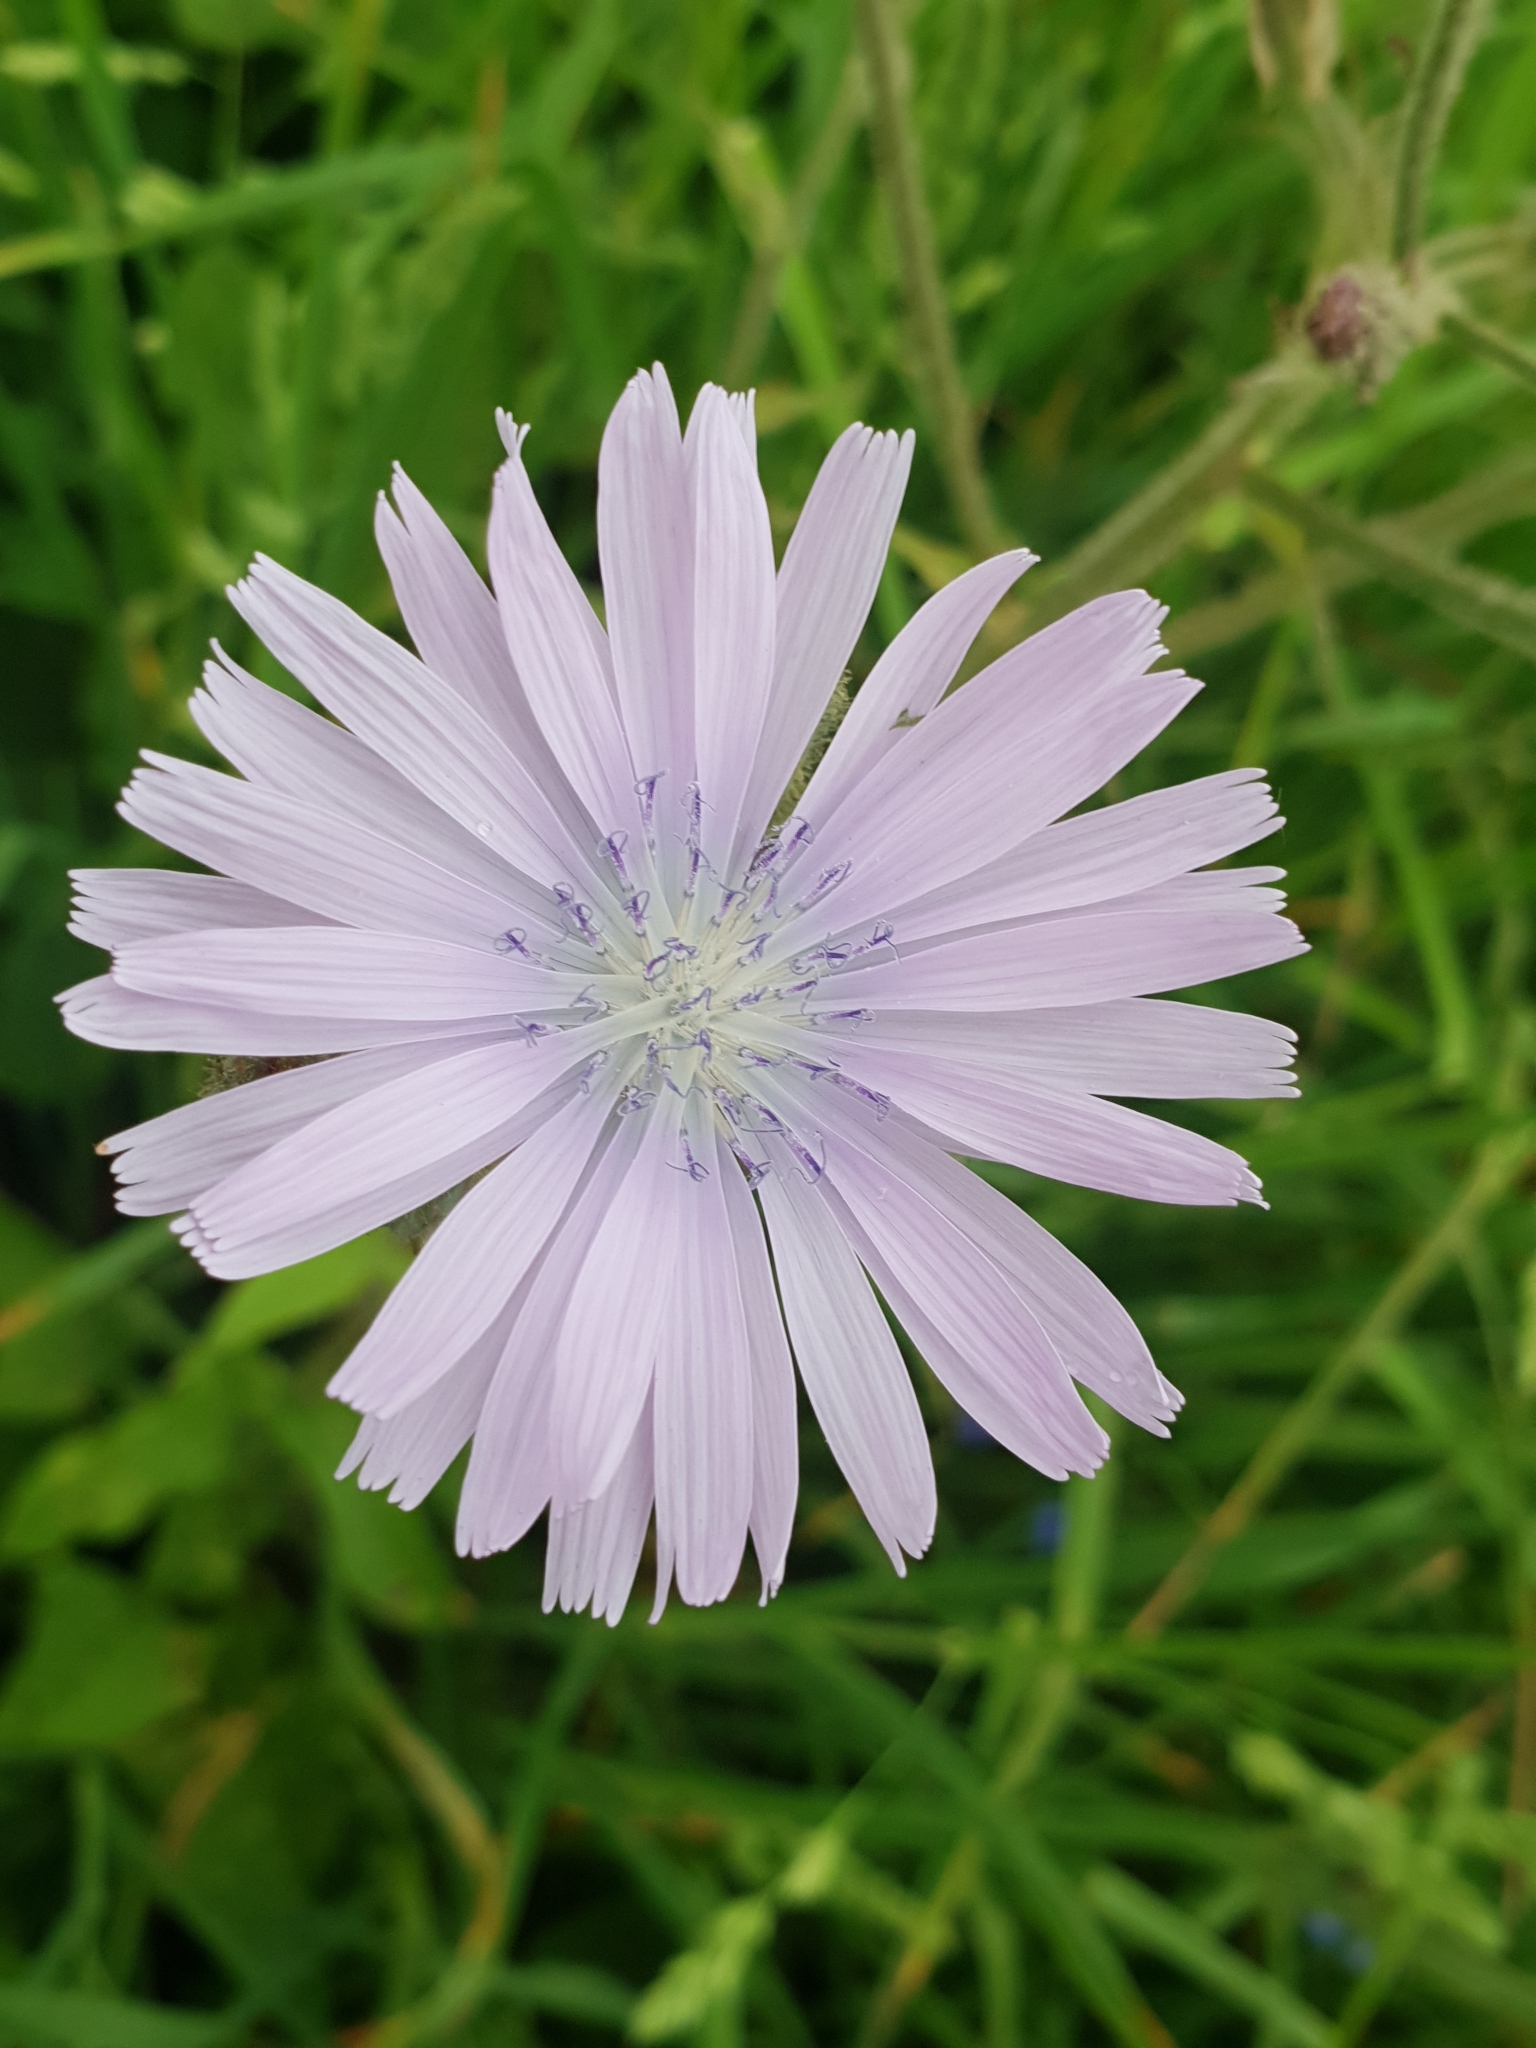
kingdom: Plantae
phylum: Tracheophyta
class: Magnoliopsida
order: Asterales
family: Asteraceae
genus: Cichorium
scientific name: Cichorium intybus
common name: Chicory
